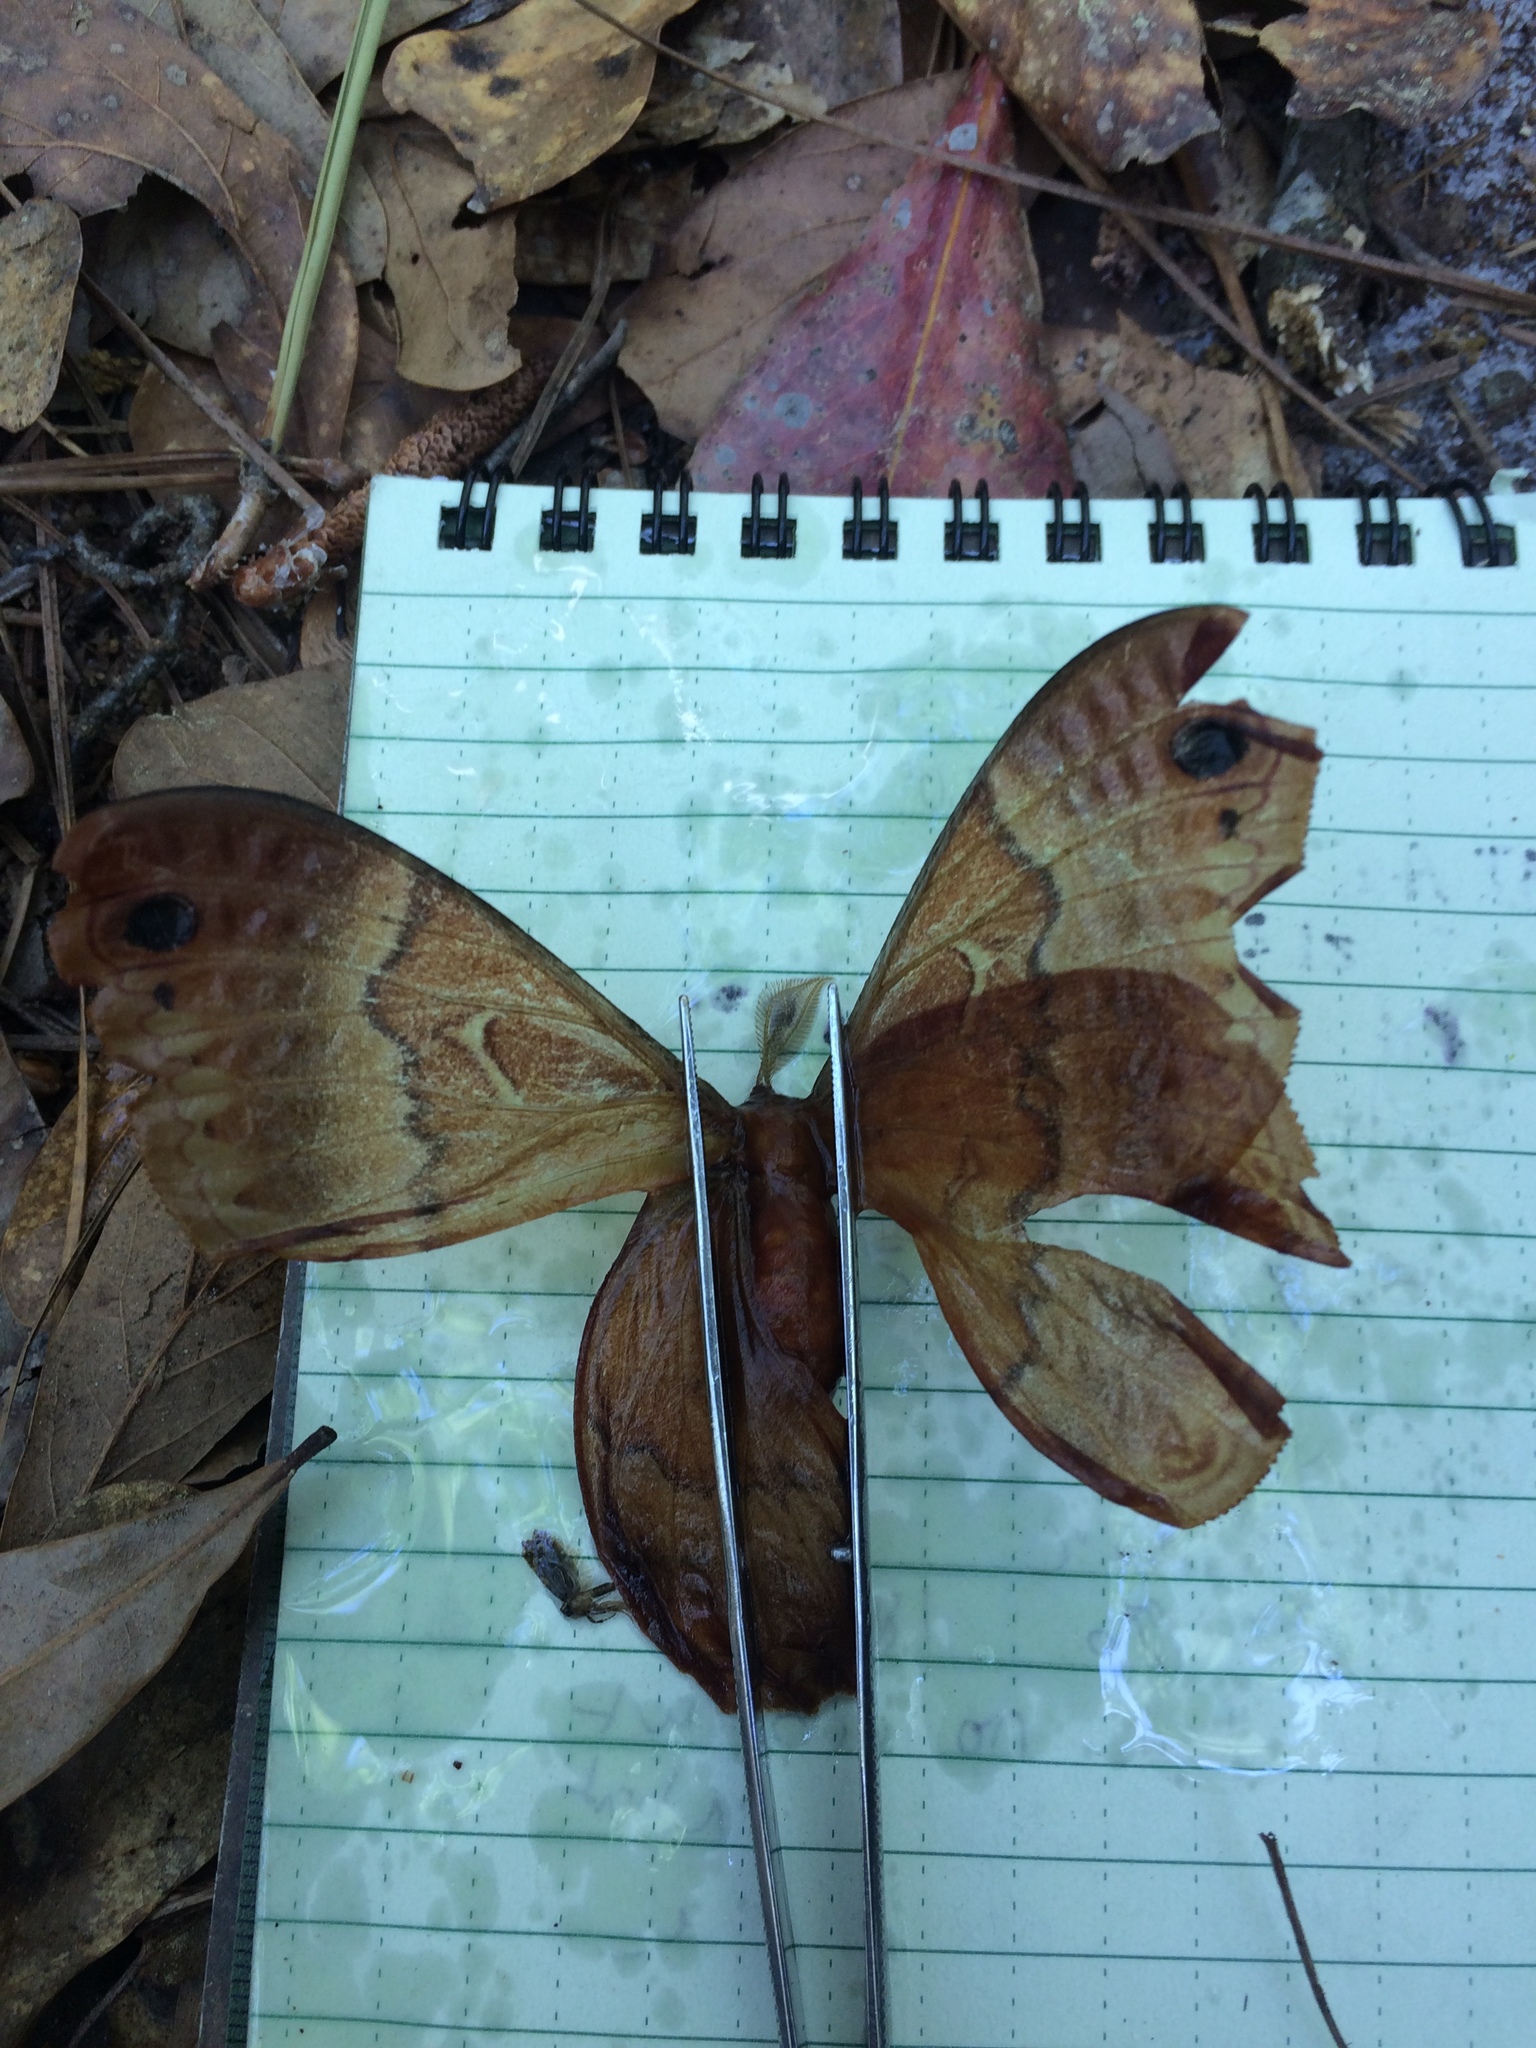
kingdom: Animalia
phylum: Arthropoda
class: Insecta
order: Lepidoptera
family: Saturniidae
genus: Callosamia
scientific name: Callosamia securifera
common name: Sweetbay silkmoth
